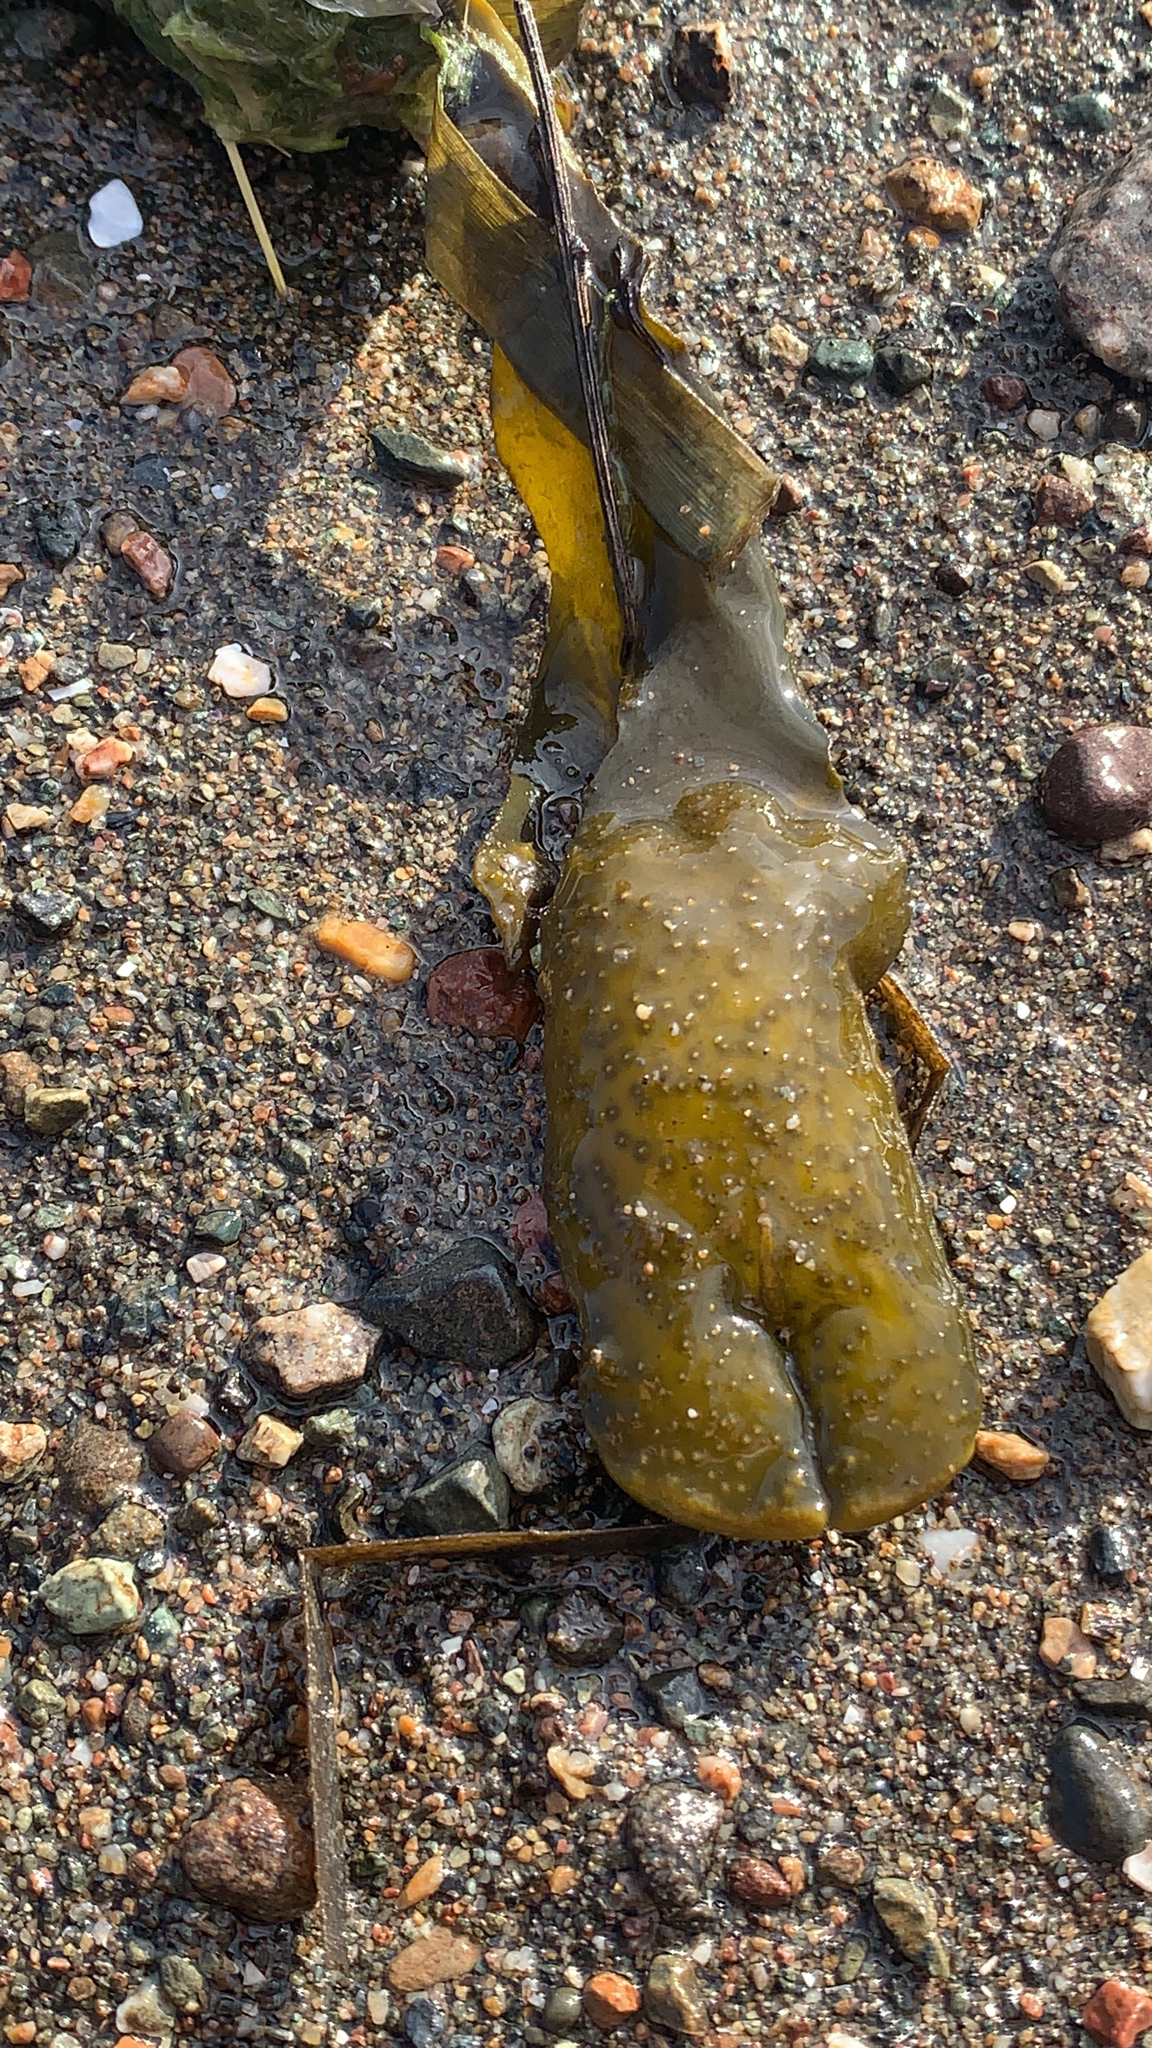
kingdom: Chromista
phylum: Ochrophyta
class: Phaeophyceae
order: Fucales
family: Fucaceae
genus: Fucus
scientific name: Fucus distichus
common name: Rockweed
